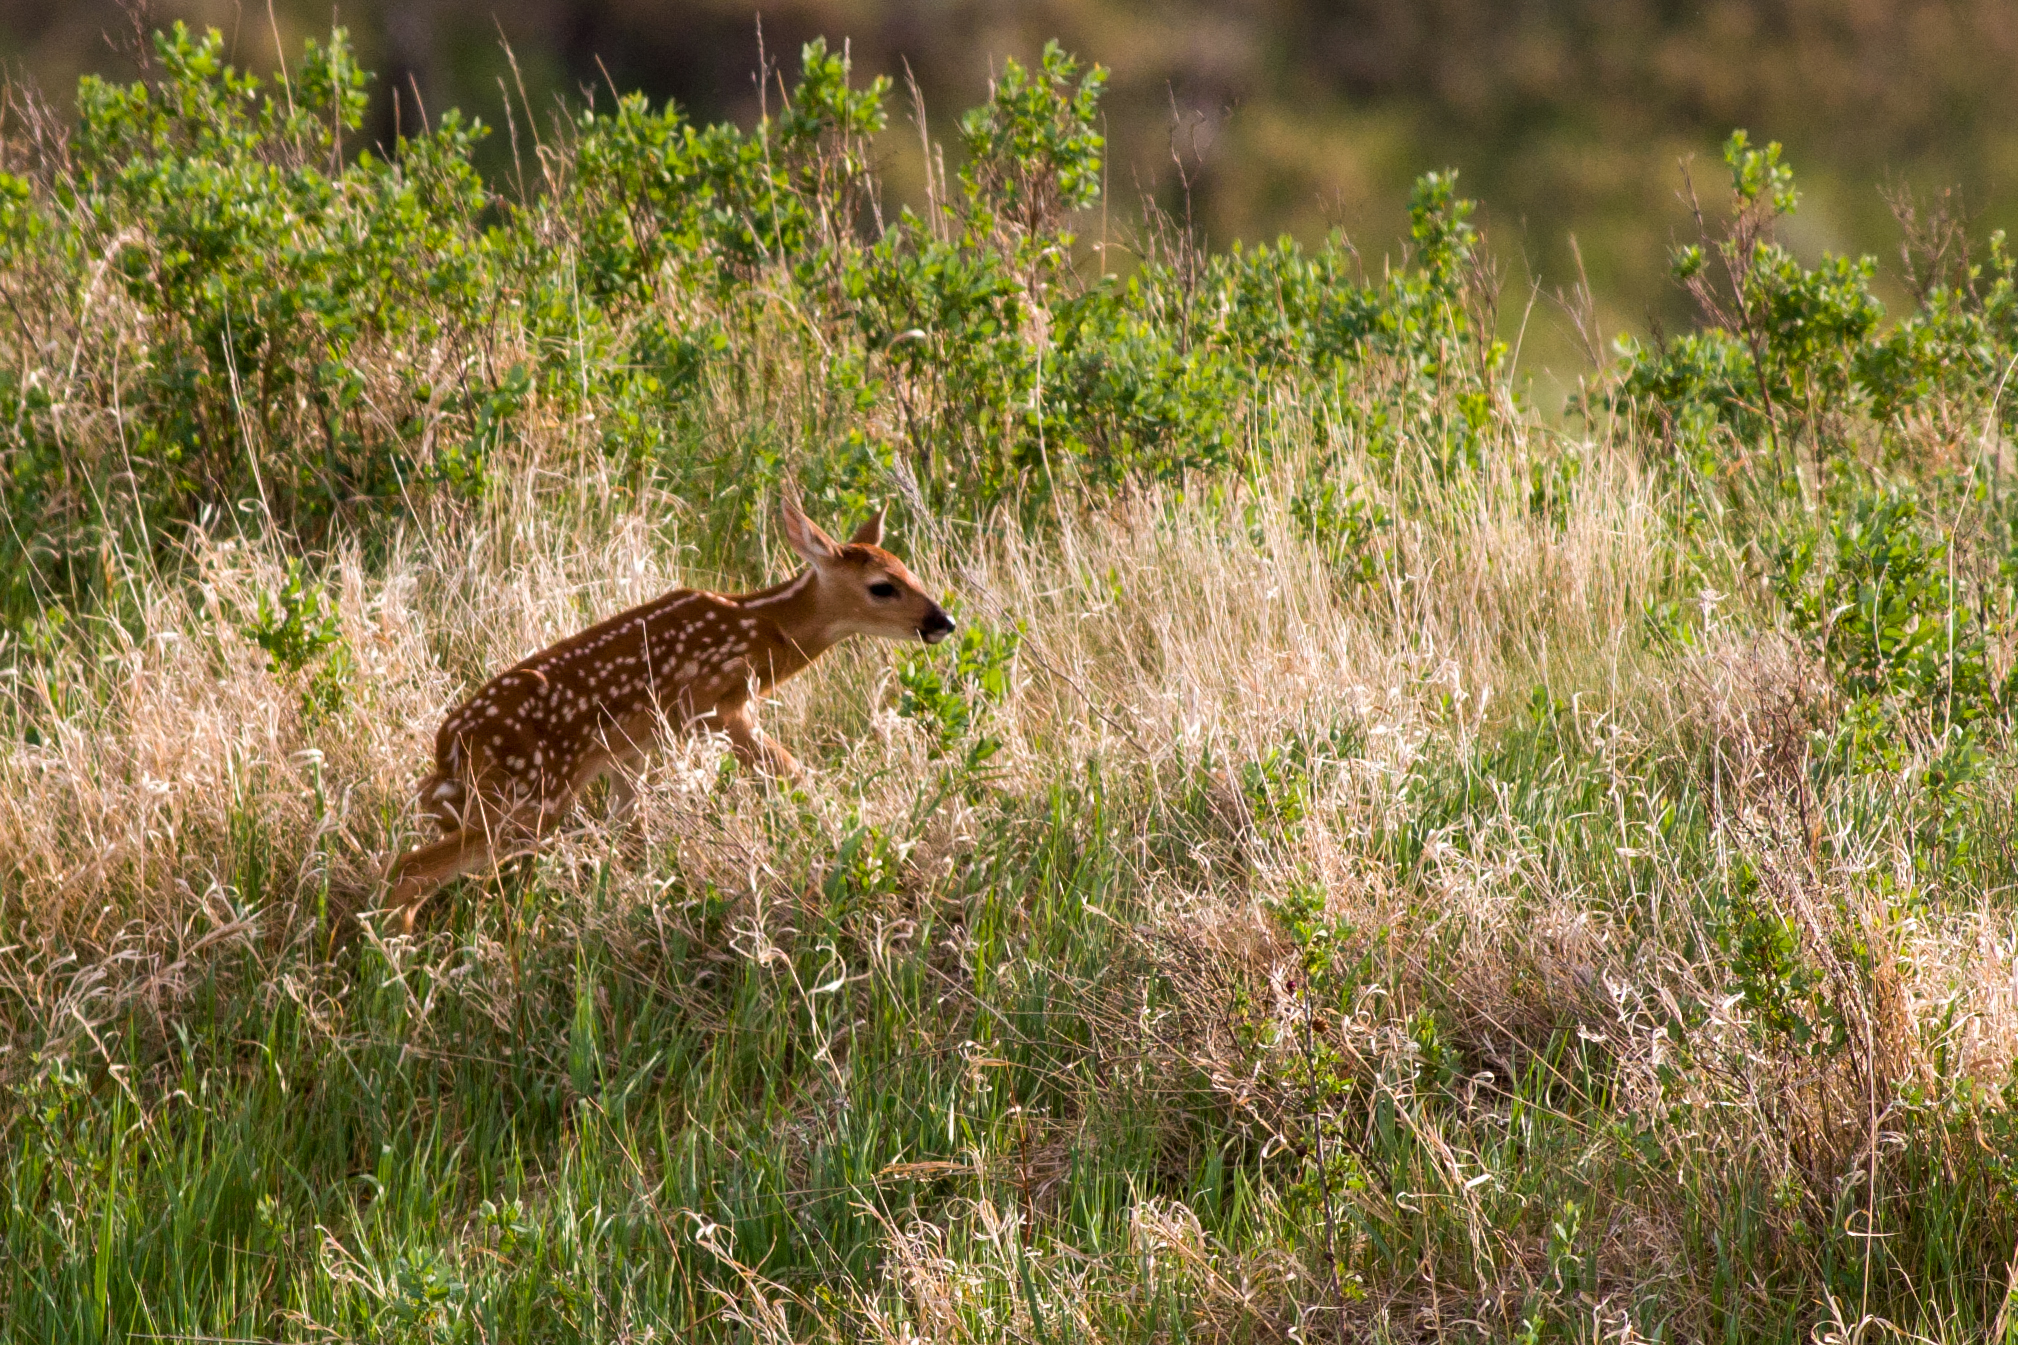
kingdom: Animalia
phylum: Chordata
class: Mammalia
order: Artiodactyla
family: Cervidae
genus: Odocoileus
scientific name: Odocoileus virginianus
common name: White-tailed deer
